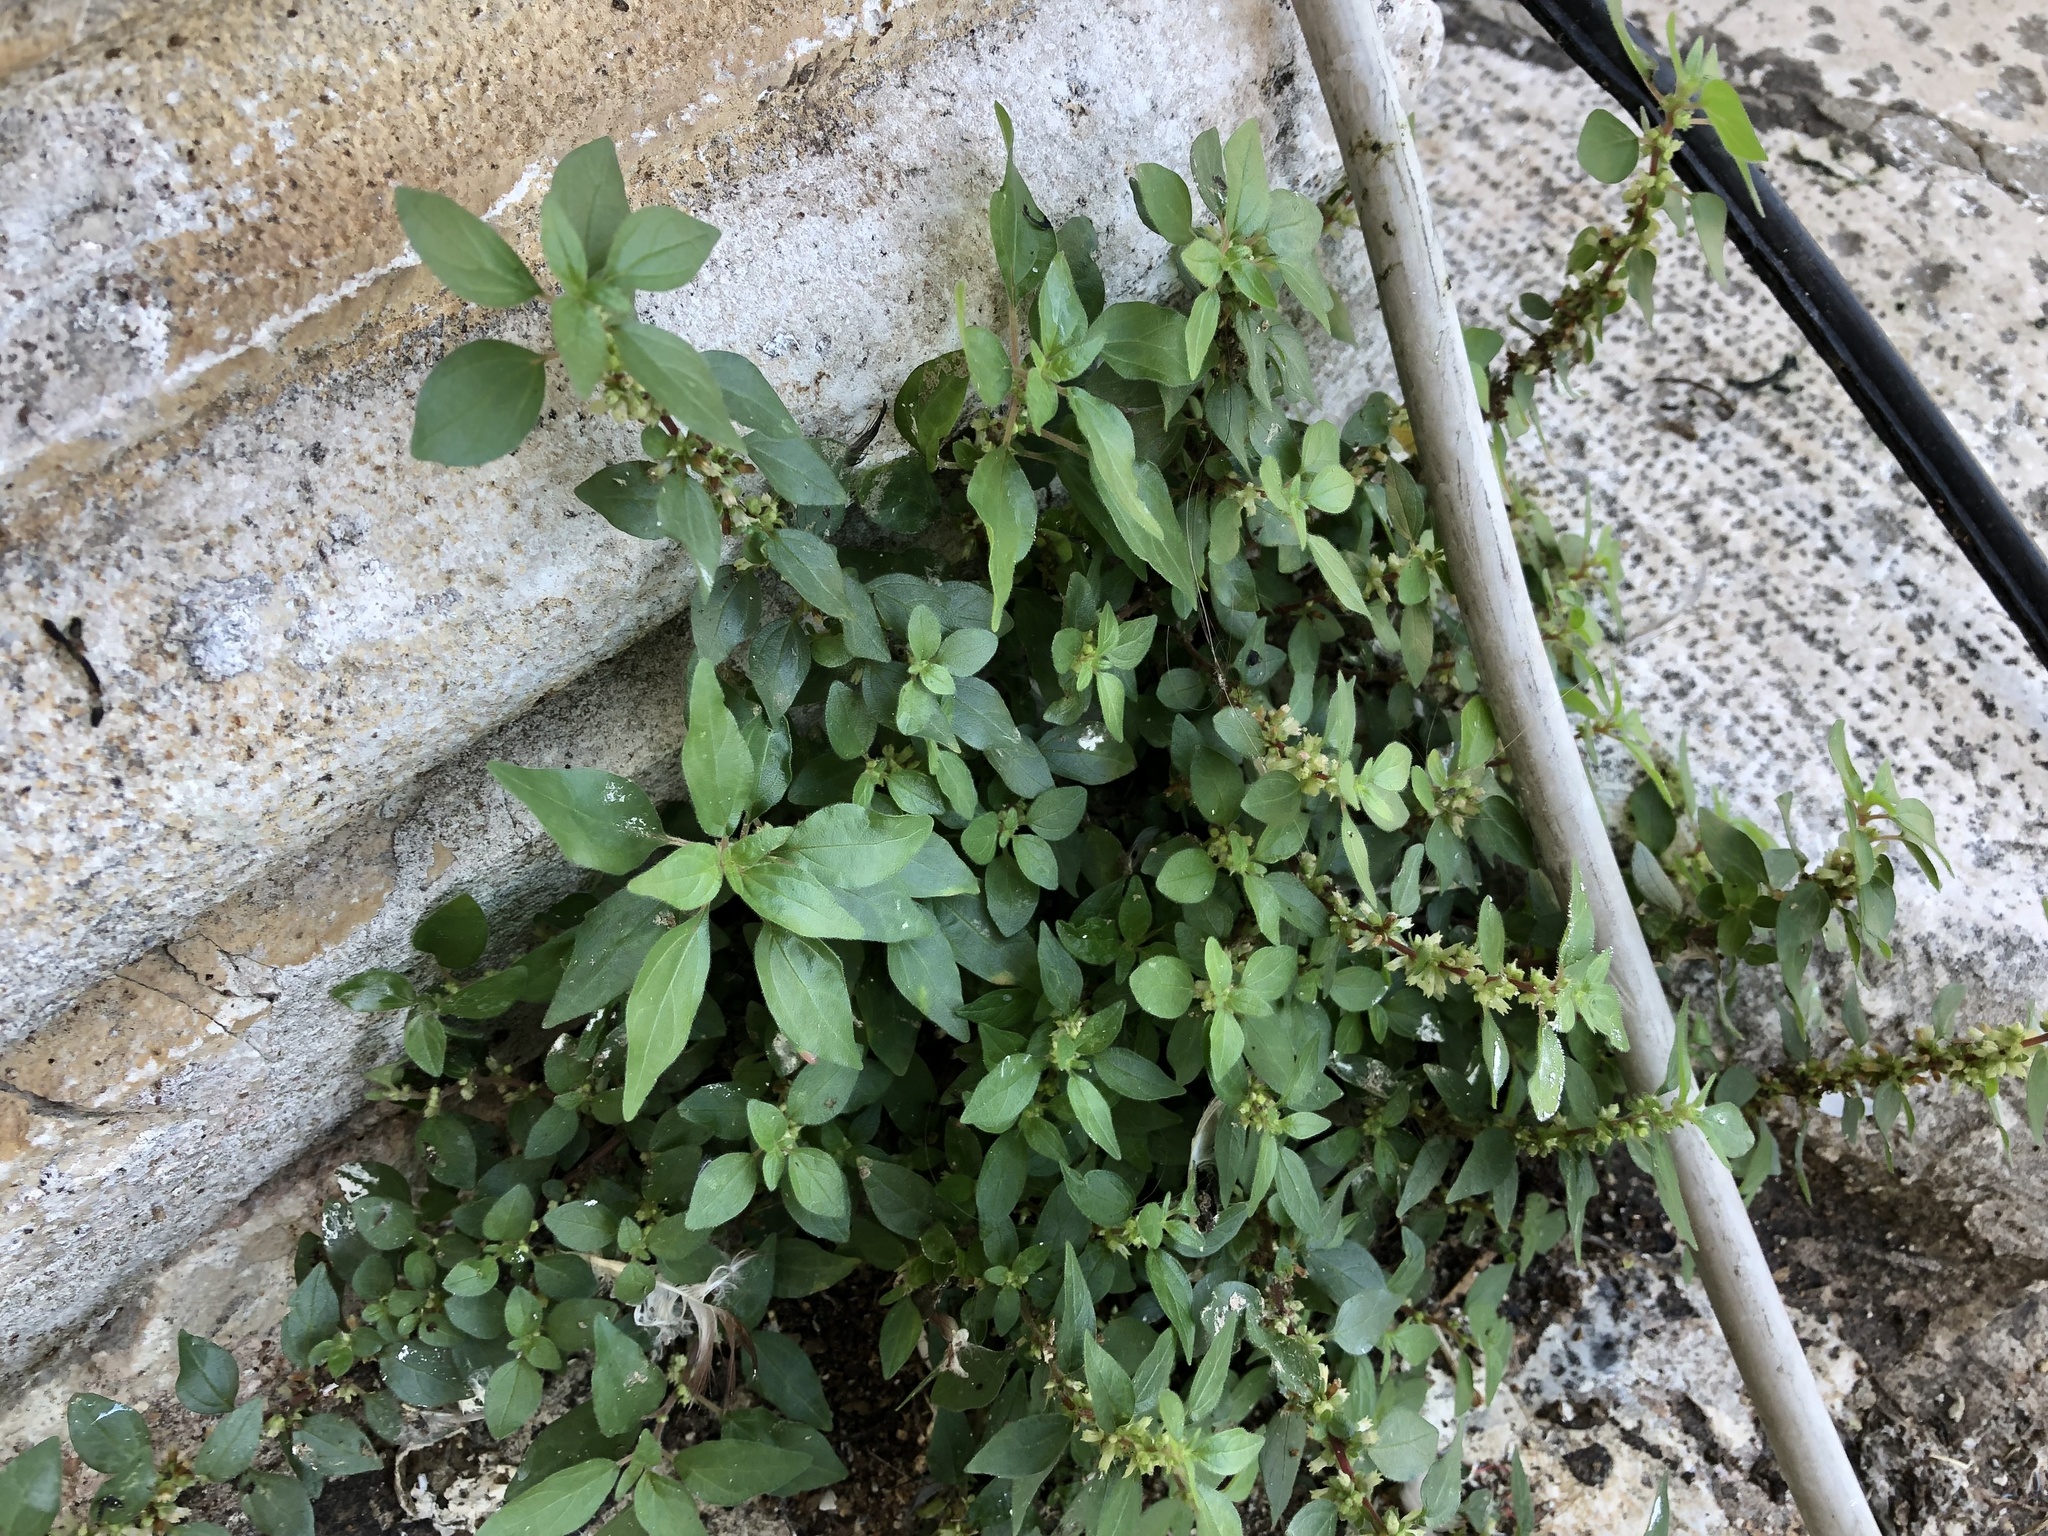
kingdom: Plantae
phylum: Tracheophyta
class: Magnoliopsida
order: Rosales
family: Urticaceae
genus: Parietaria
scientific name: Parietaria judaica
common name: Pellitory-of-the-wall
